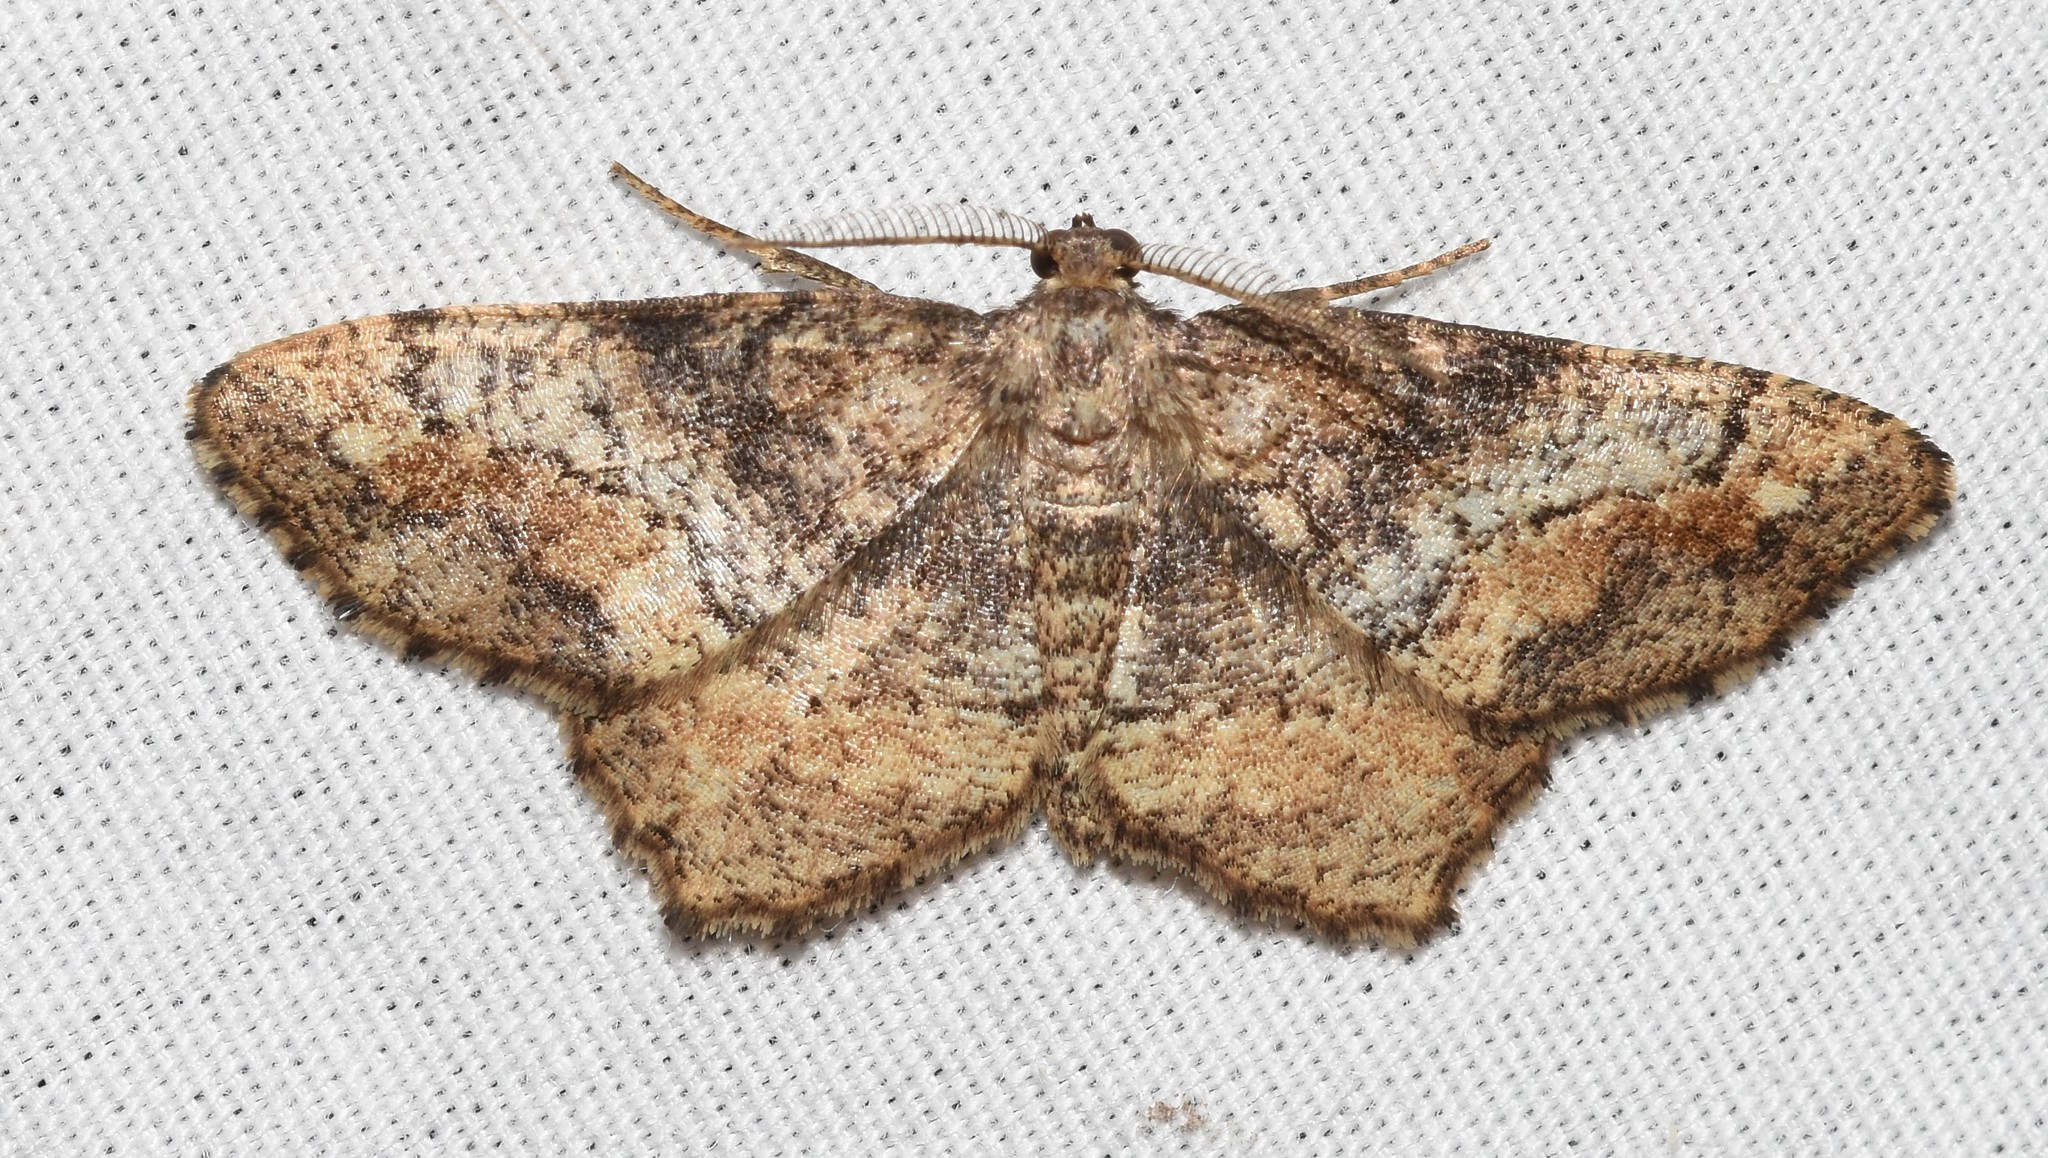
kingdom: Animalia
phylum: Arthropoda
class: Insecta
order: Lepidoptera
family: Geometridae
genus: Hypagyrtis
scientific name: Hypagyrtis unipunctata
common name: One-spotted variant
